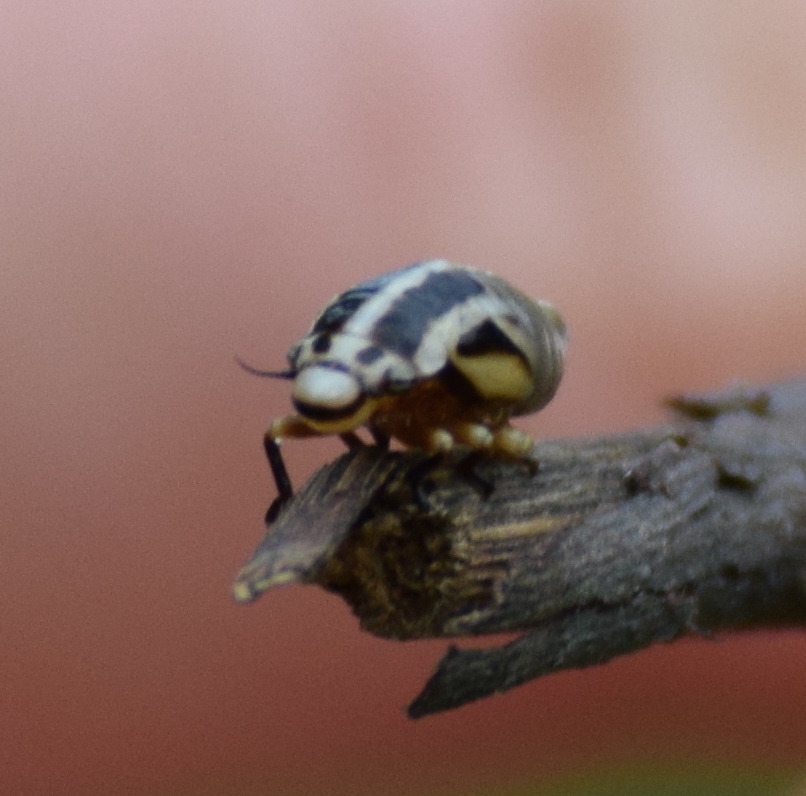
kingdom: Animalia
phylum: Arthropoda
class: Insecta
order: Hemiptera
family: Aphrophoridae
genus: Lepyronia
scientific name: Lepyronia gibbosa
